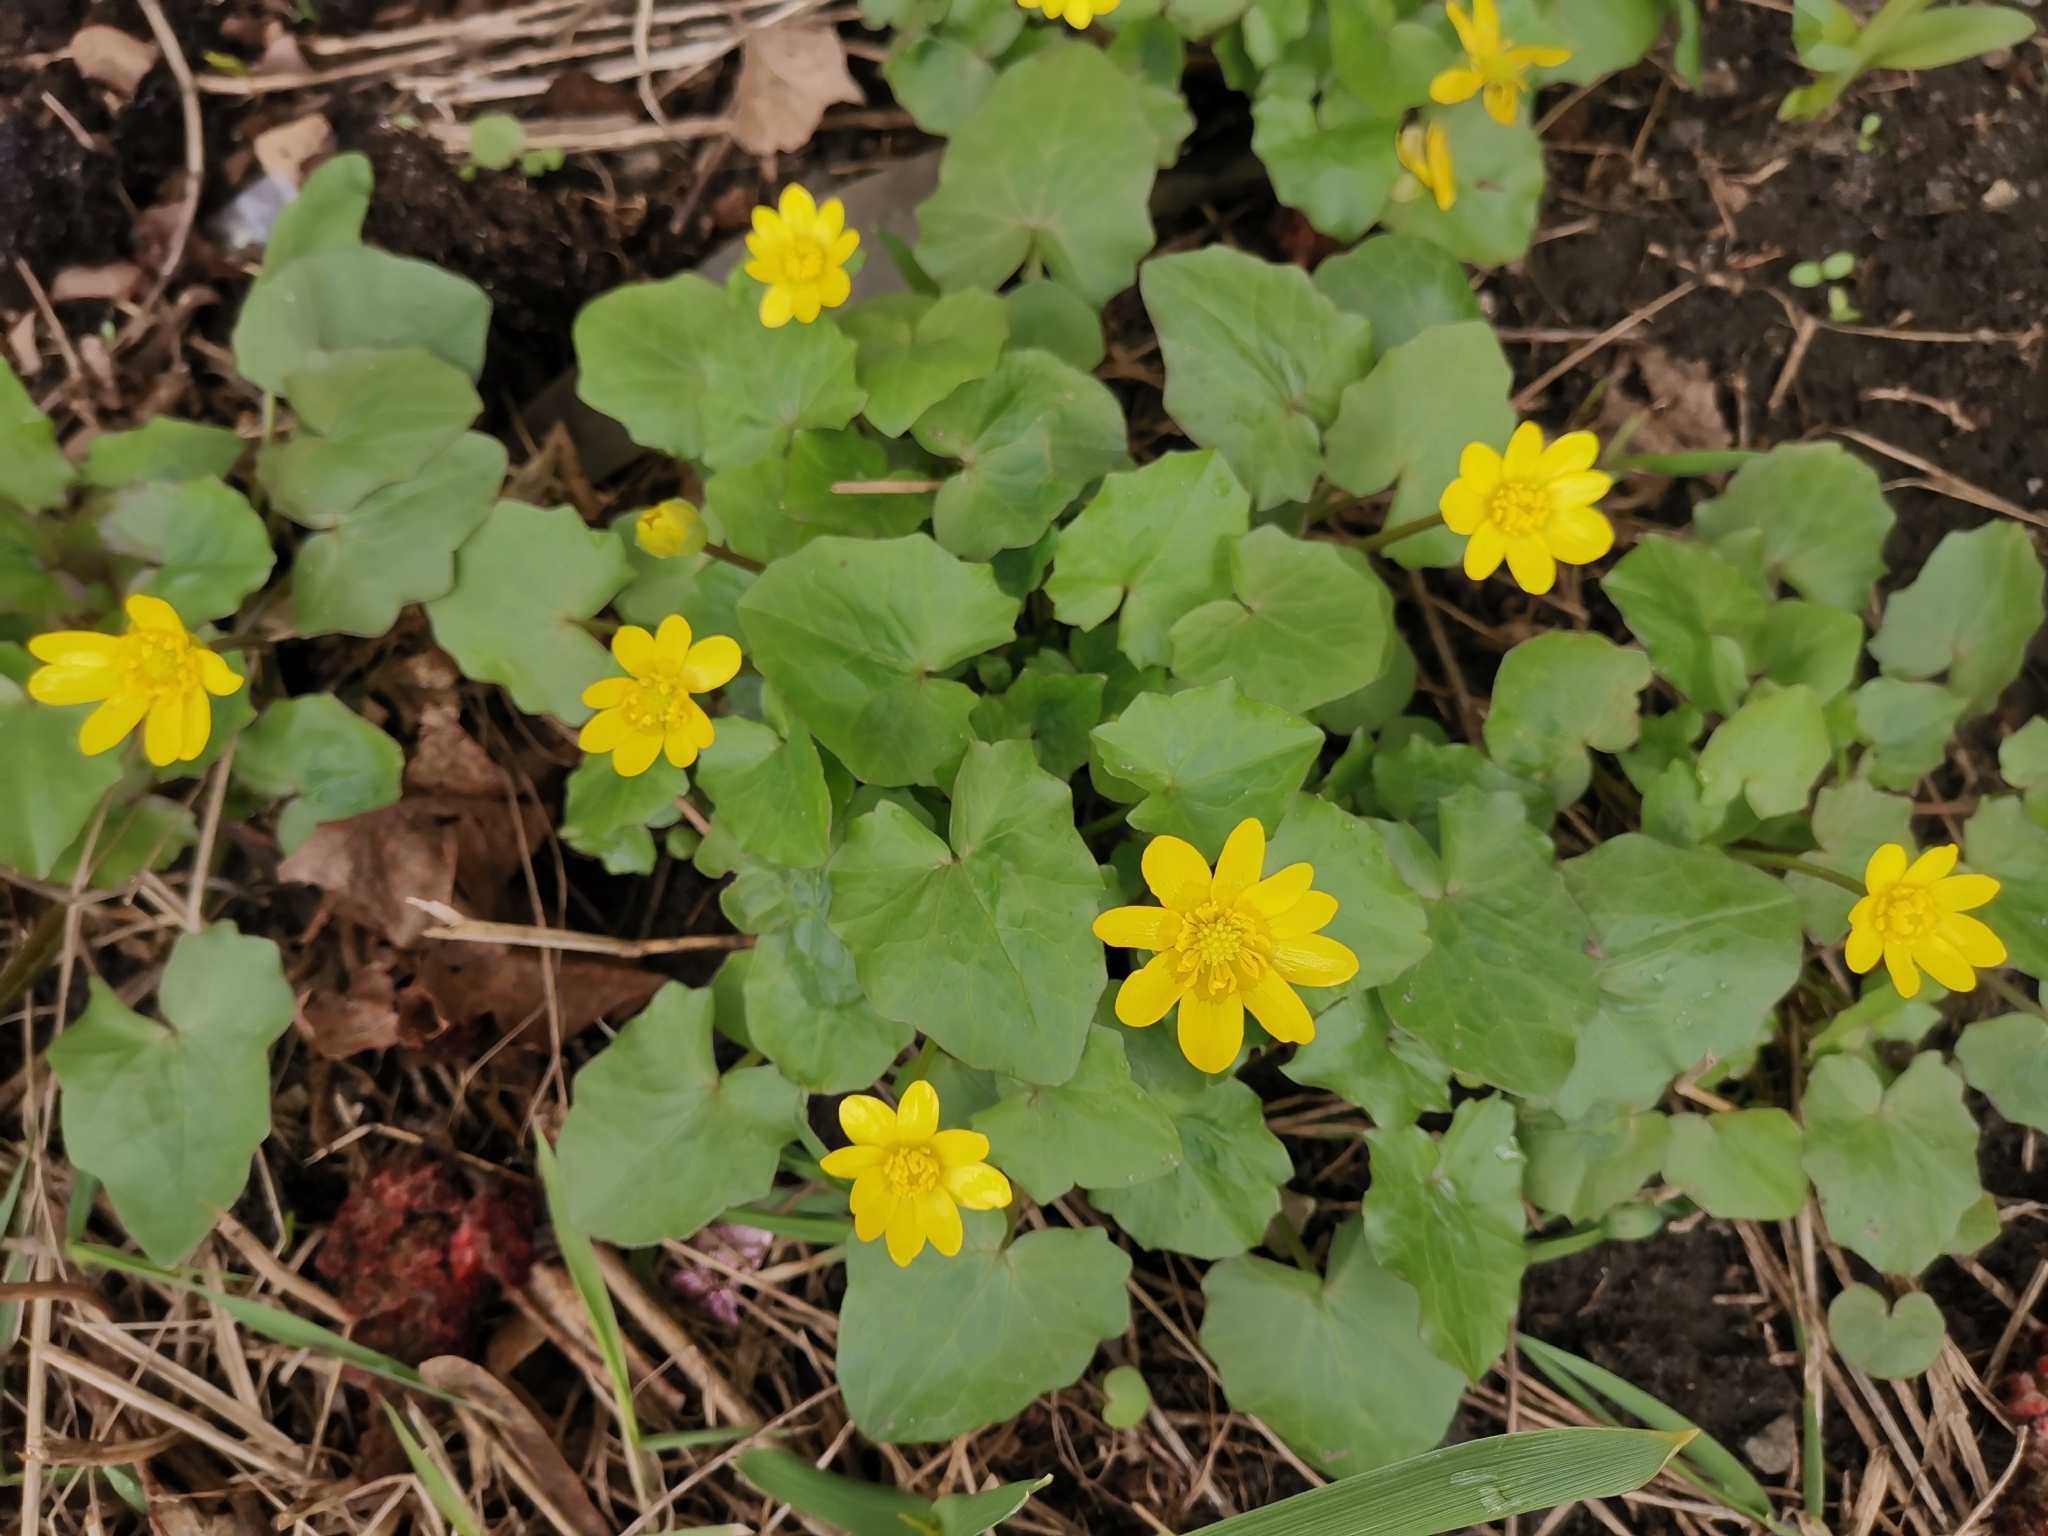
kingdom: Plantae
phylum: Tracheophyta
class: Magnoliopsida
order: Ranunculales
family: Ranunculaceae
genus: Ficaria
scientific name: Ficaria verna
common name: Lesser celandine
